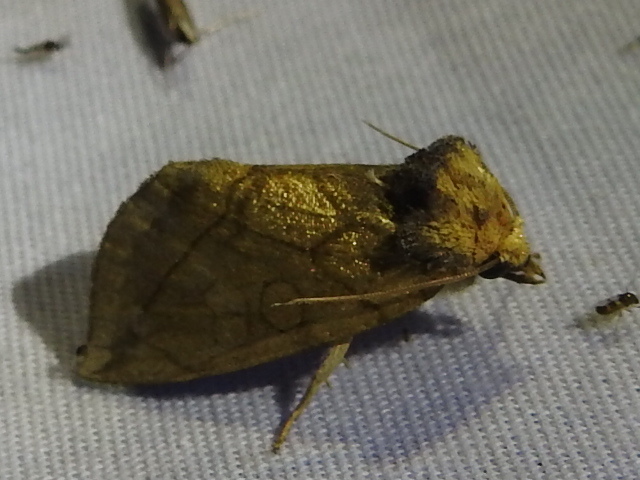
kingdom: Animalia
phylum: Arthropoda
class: Insecta
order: Lepidoptera
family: Noctuidae
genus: Basilodes
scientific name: Basilodes pepita
